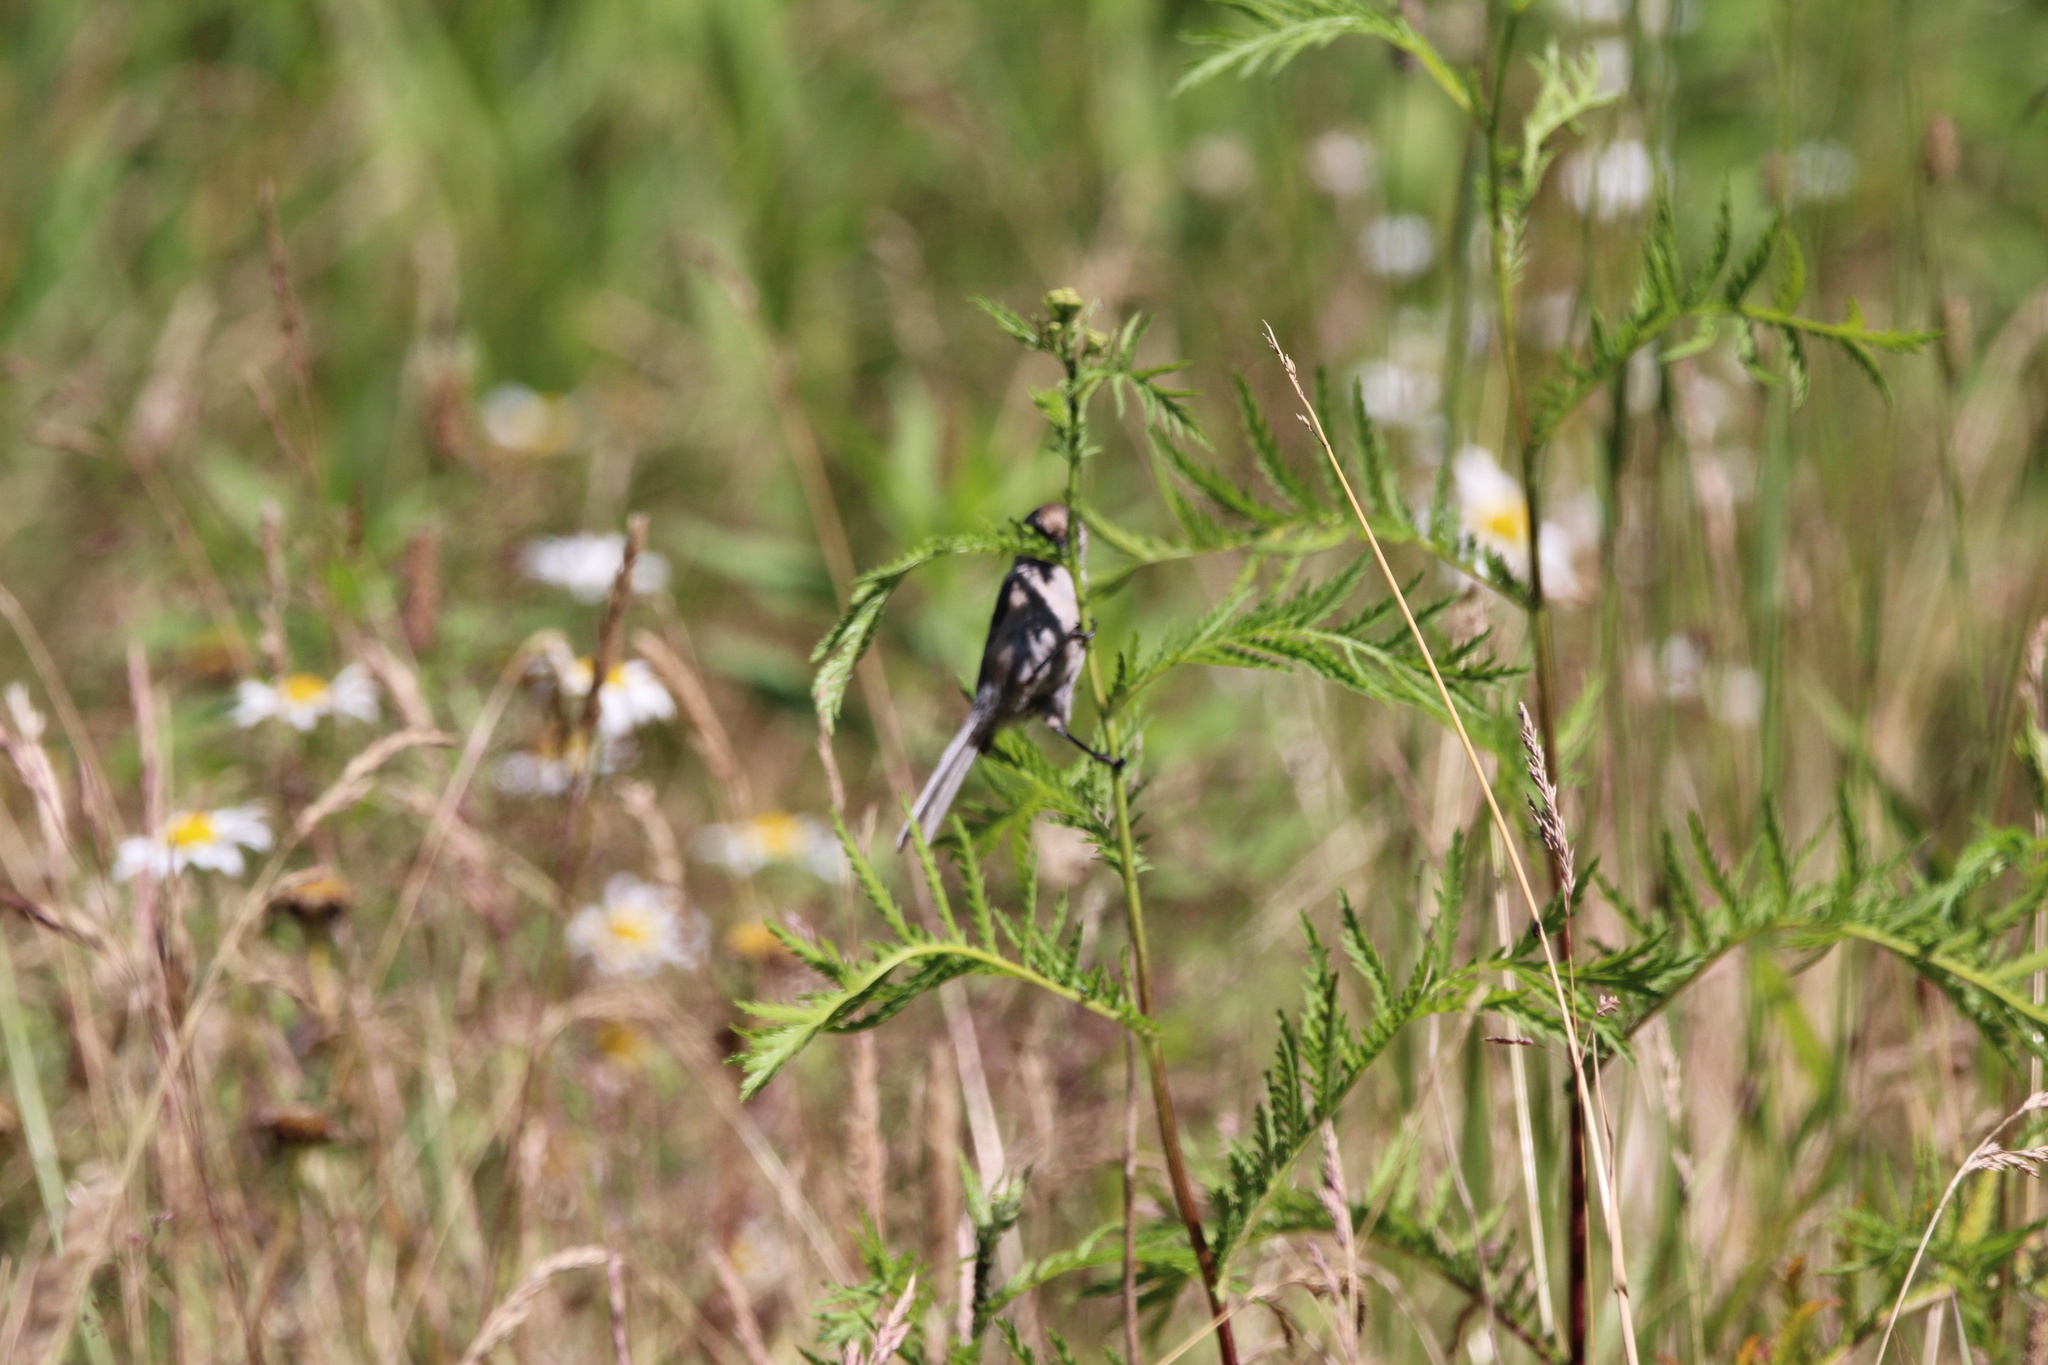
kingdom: Animalia
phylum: Chordata
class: Aves
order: Passeriformes
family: Aegithalidae
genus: Psaltriparus
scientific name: Psaltriparus minimus
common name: American bushtit
